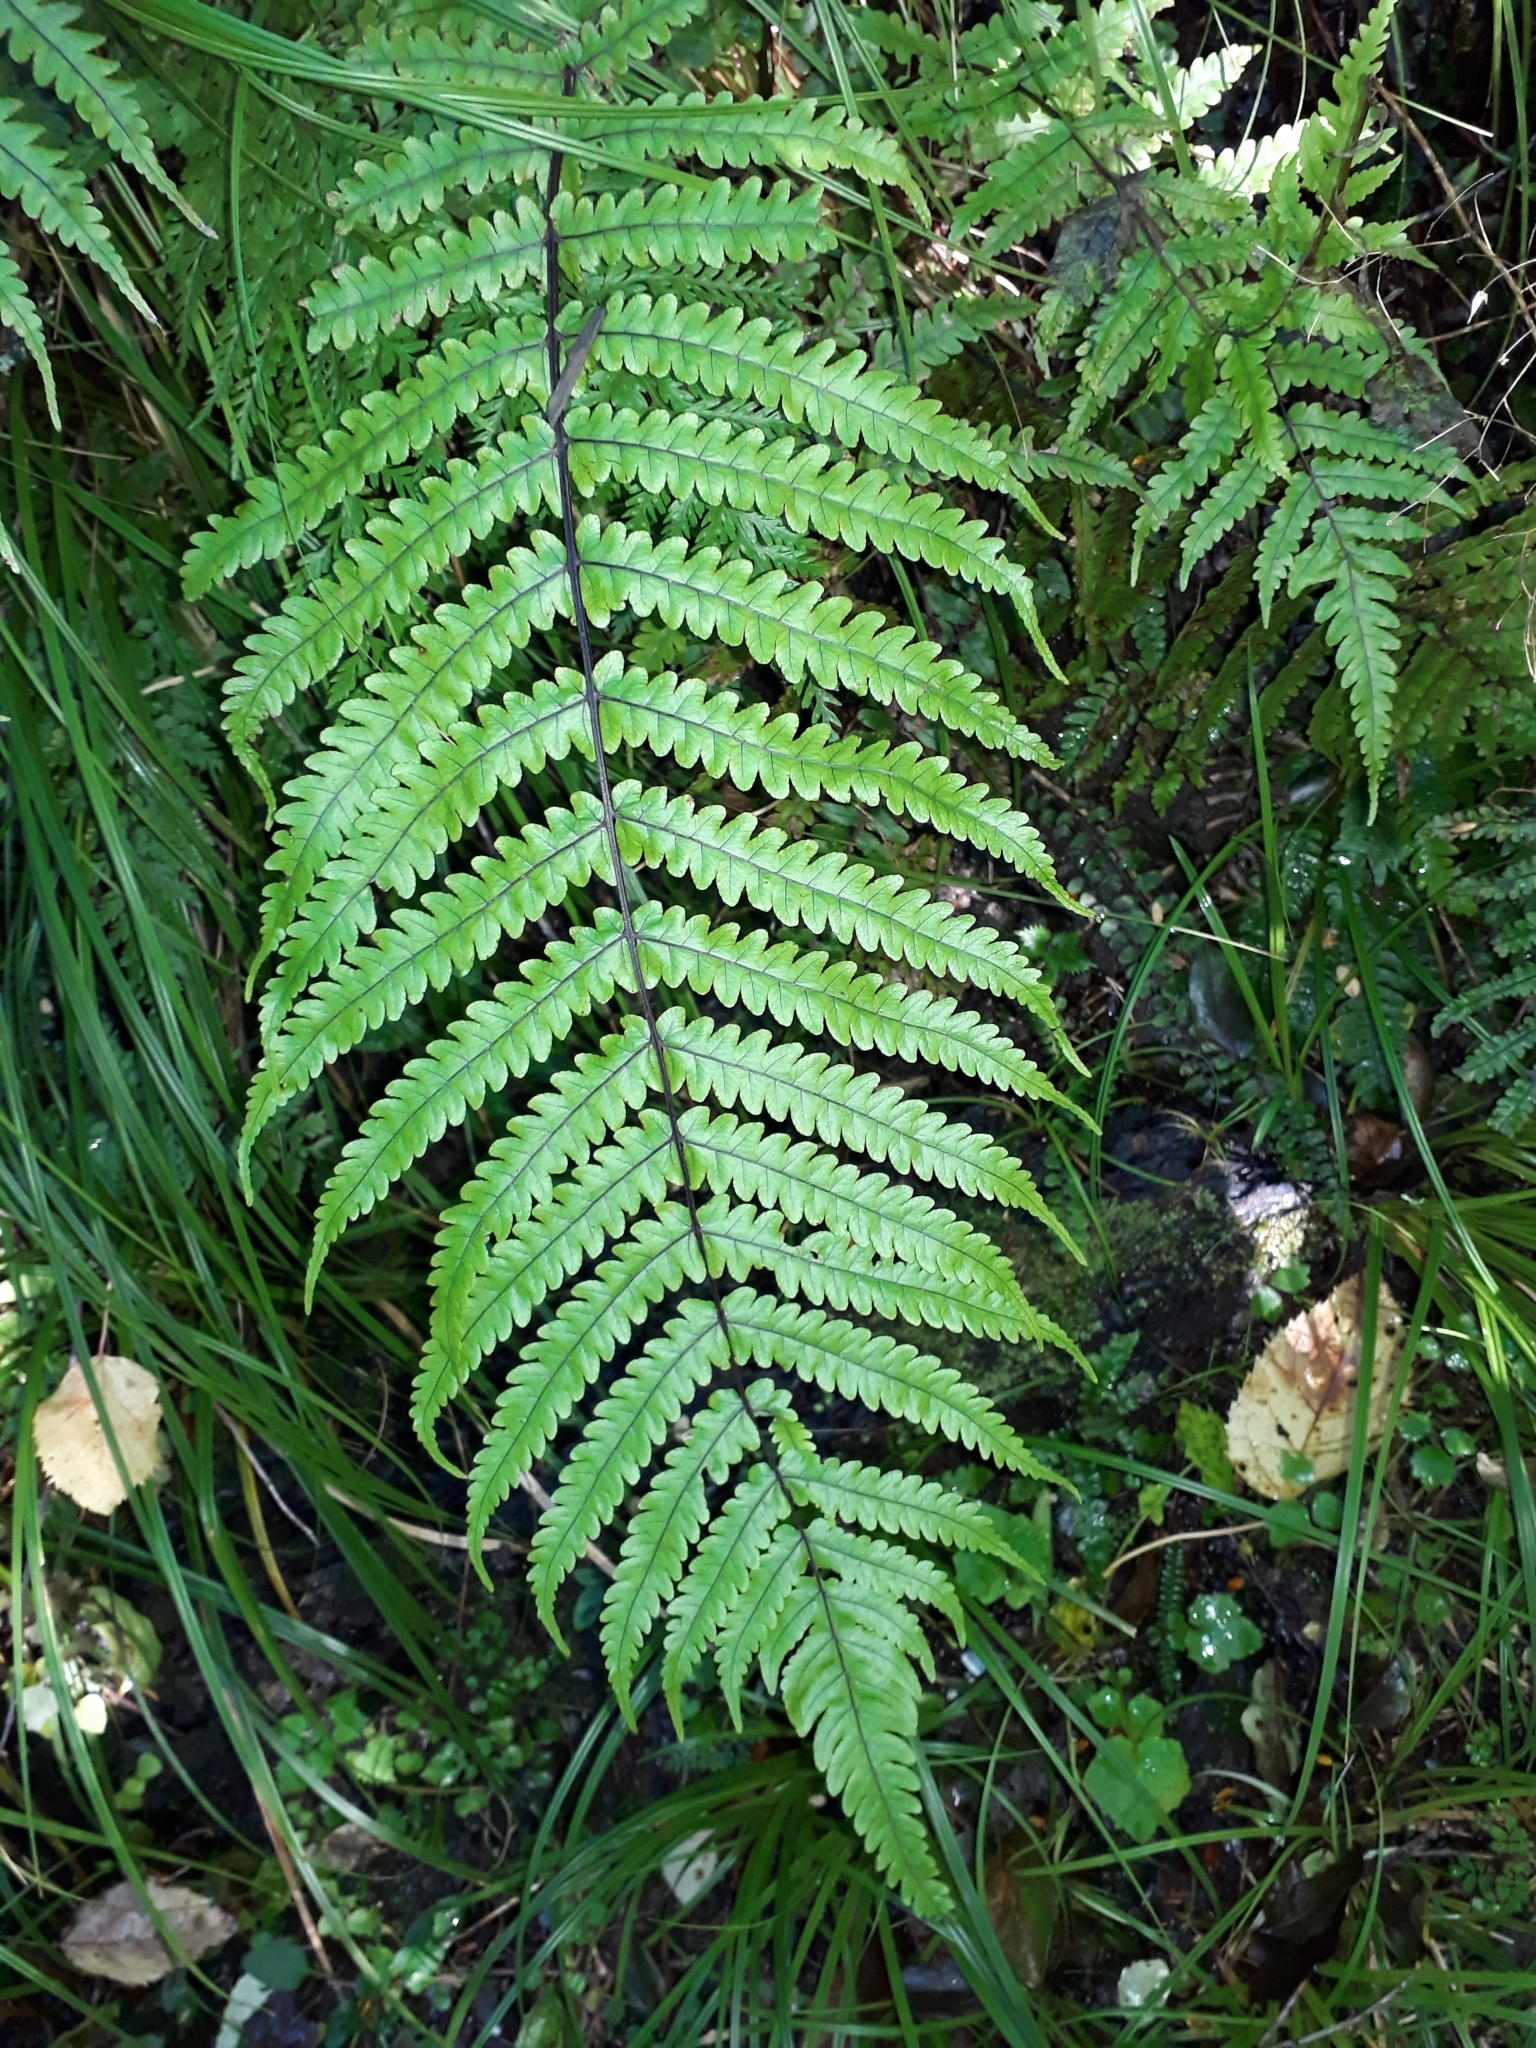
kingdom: Plantae
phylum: Tracheophyta
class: Polypodiopsida
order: Polypodiales
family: Thelypteridaceae
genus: Pakau
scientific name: Pakau pennigera
